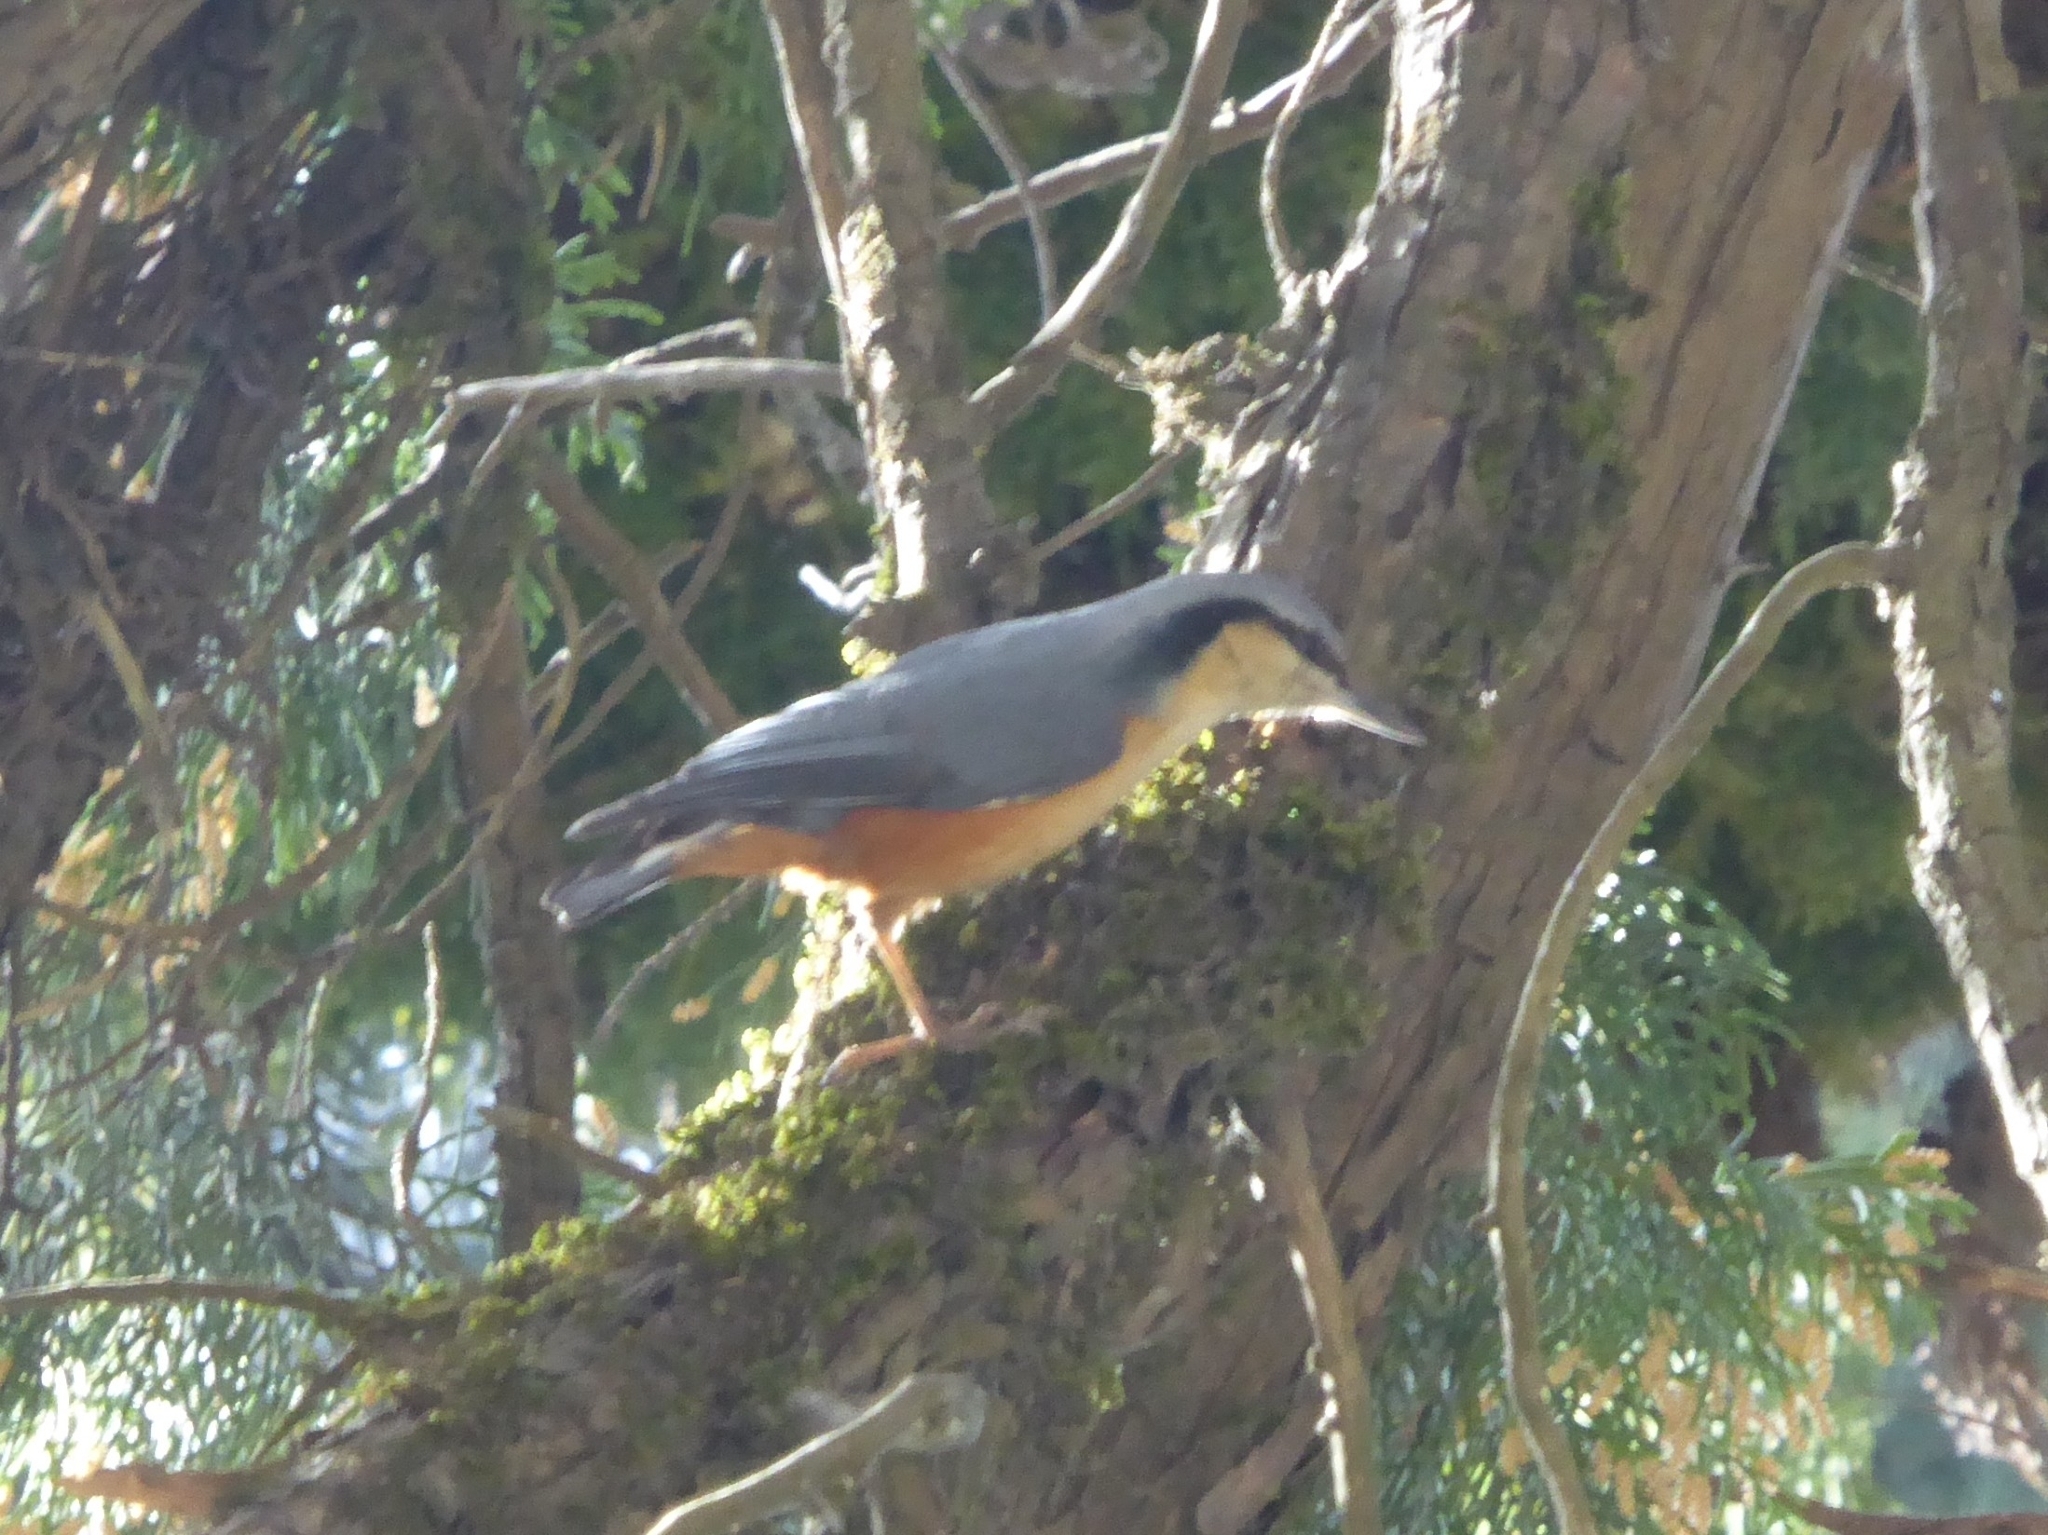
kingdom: Animalia
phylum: Chordata
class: Aves
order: Passeriformes
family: Sittidae
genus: Sitta
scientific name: Sitta himalayensis
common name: White-tailed nuthatch
